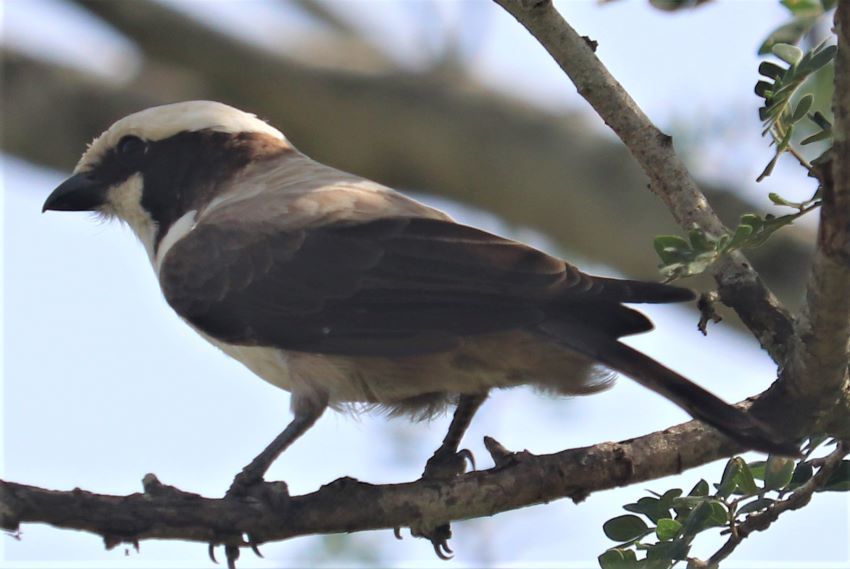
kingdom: Animalia
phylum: Chordata
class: Aves
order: Passeriformes
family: Laniidae
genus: Eurocephalus
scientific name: Eurocephalus anguitimens
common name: Southern white-crowned shrike
